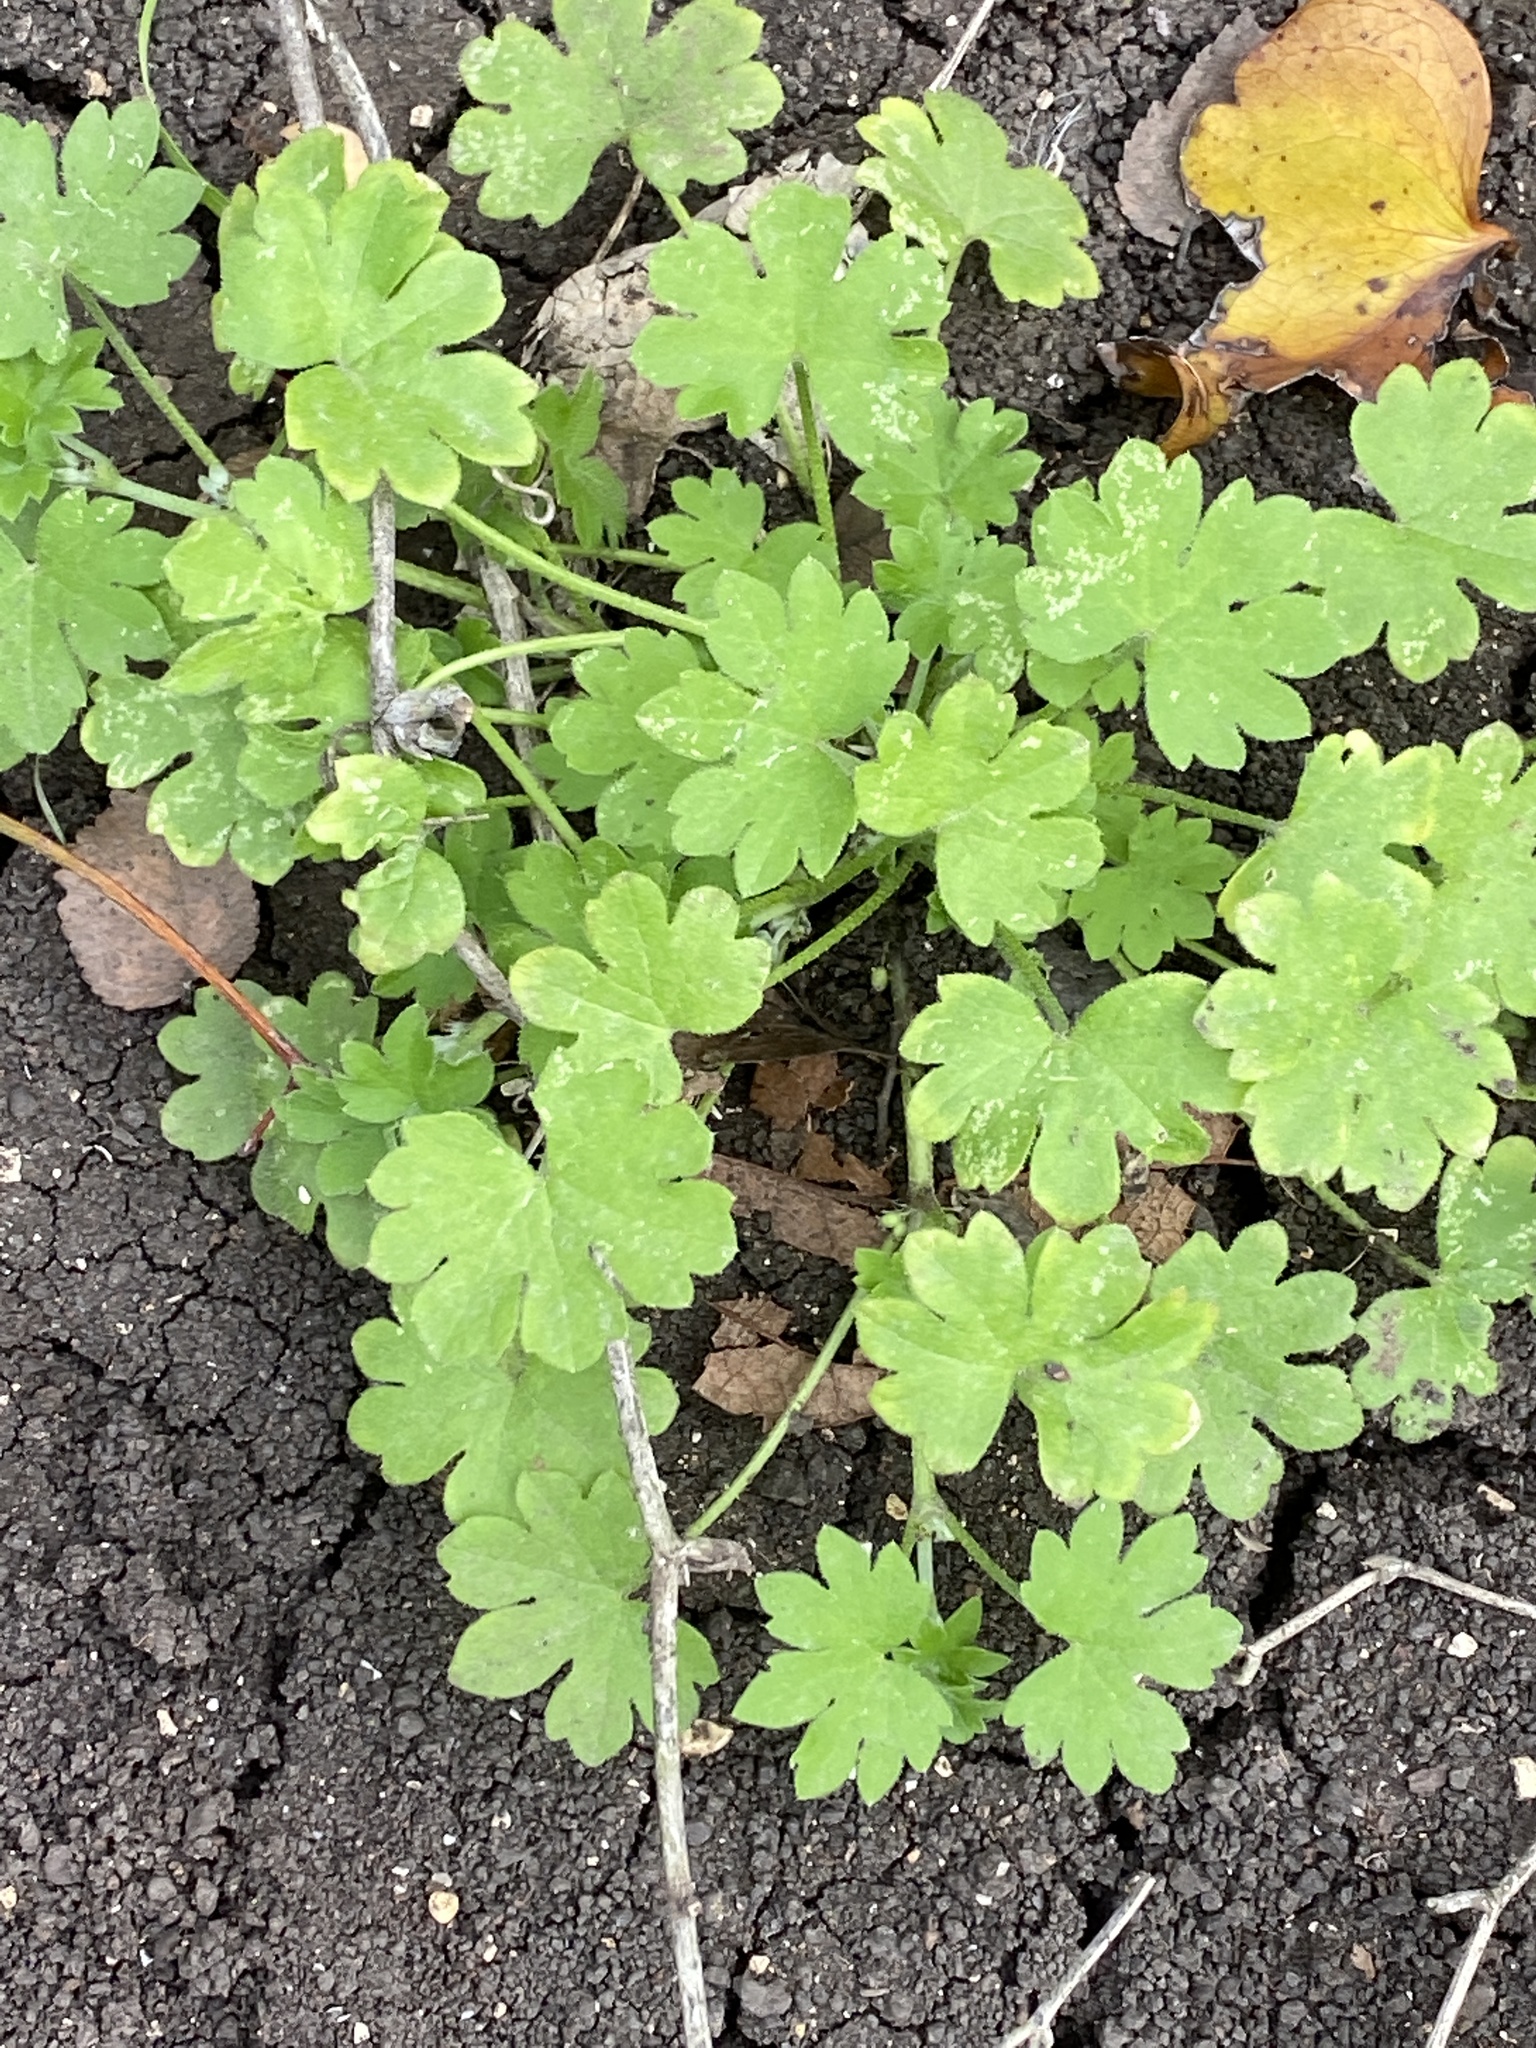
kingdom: Plantae
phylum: Tracheophyta
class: Magnoliopsida
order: Apiales
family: Apiaceae
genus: Bowlesia
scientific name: Bowlesia incana
